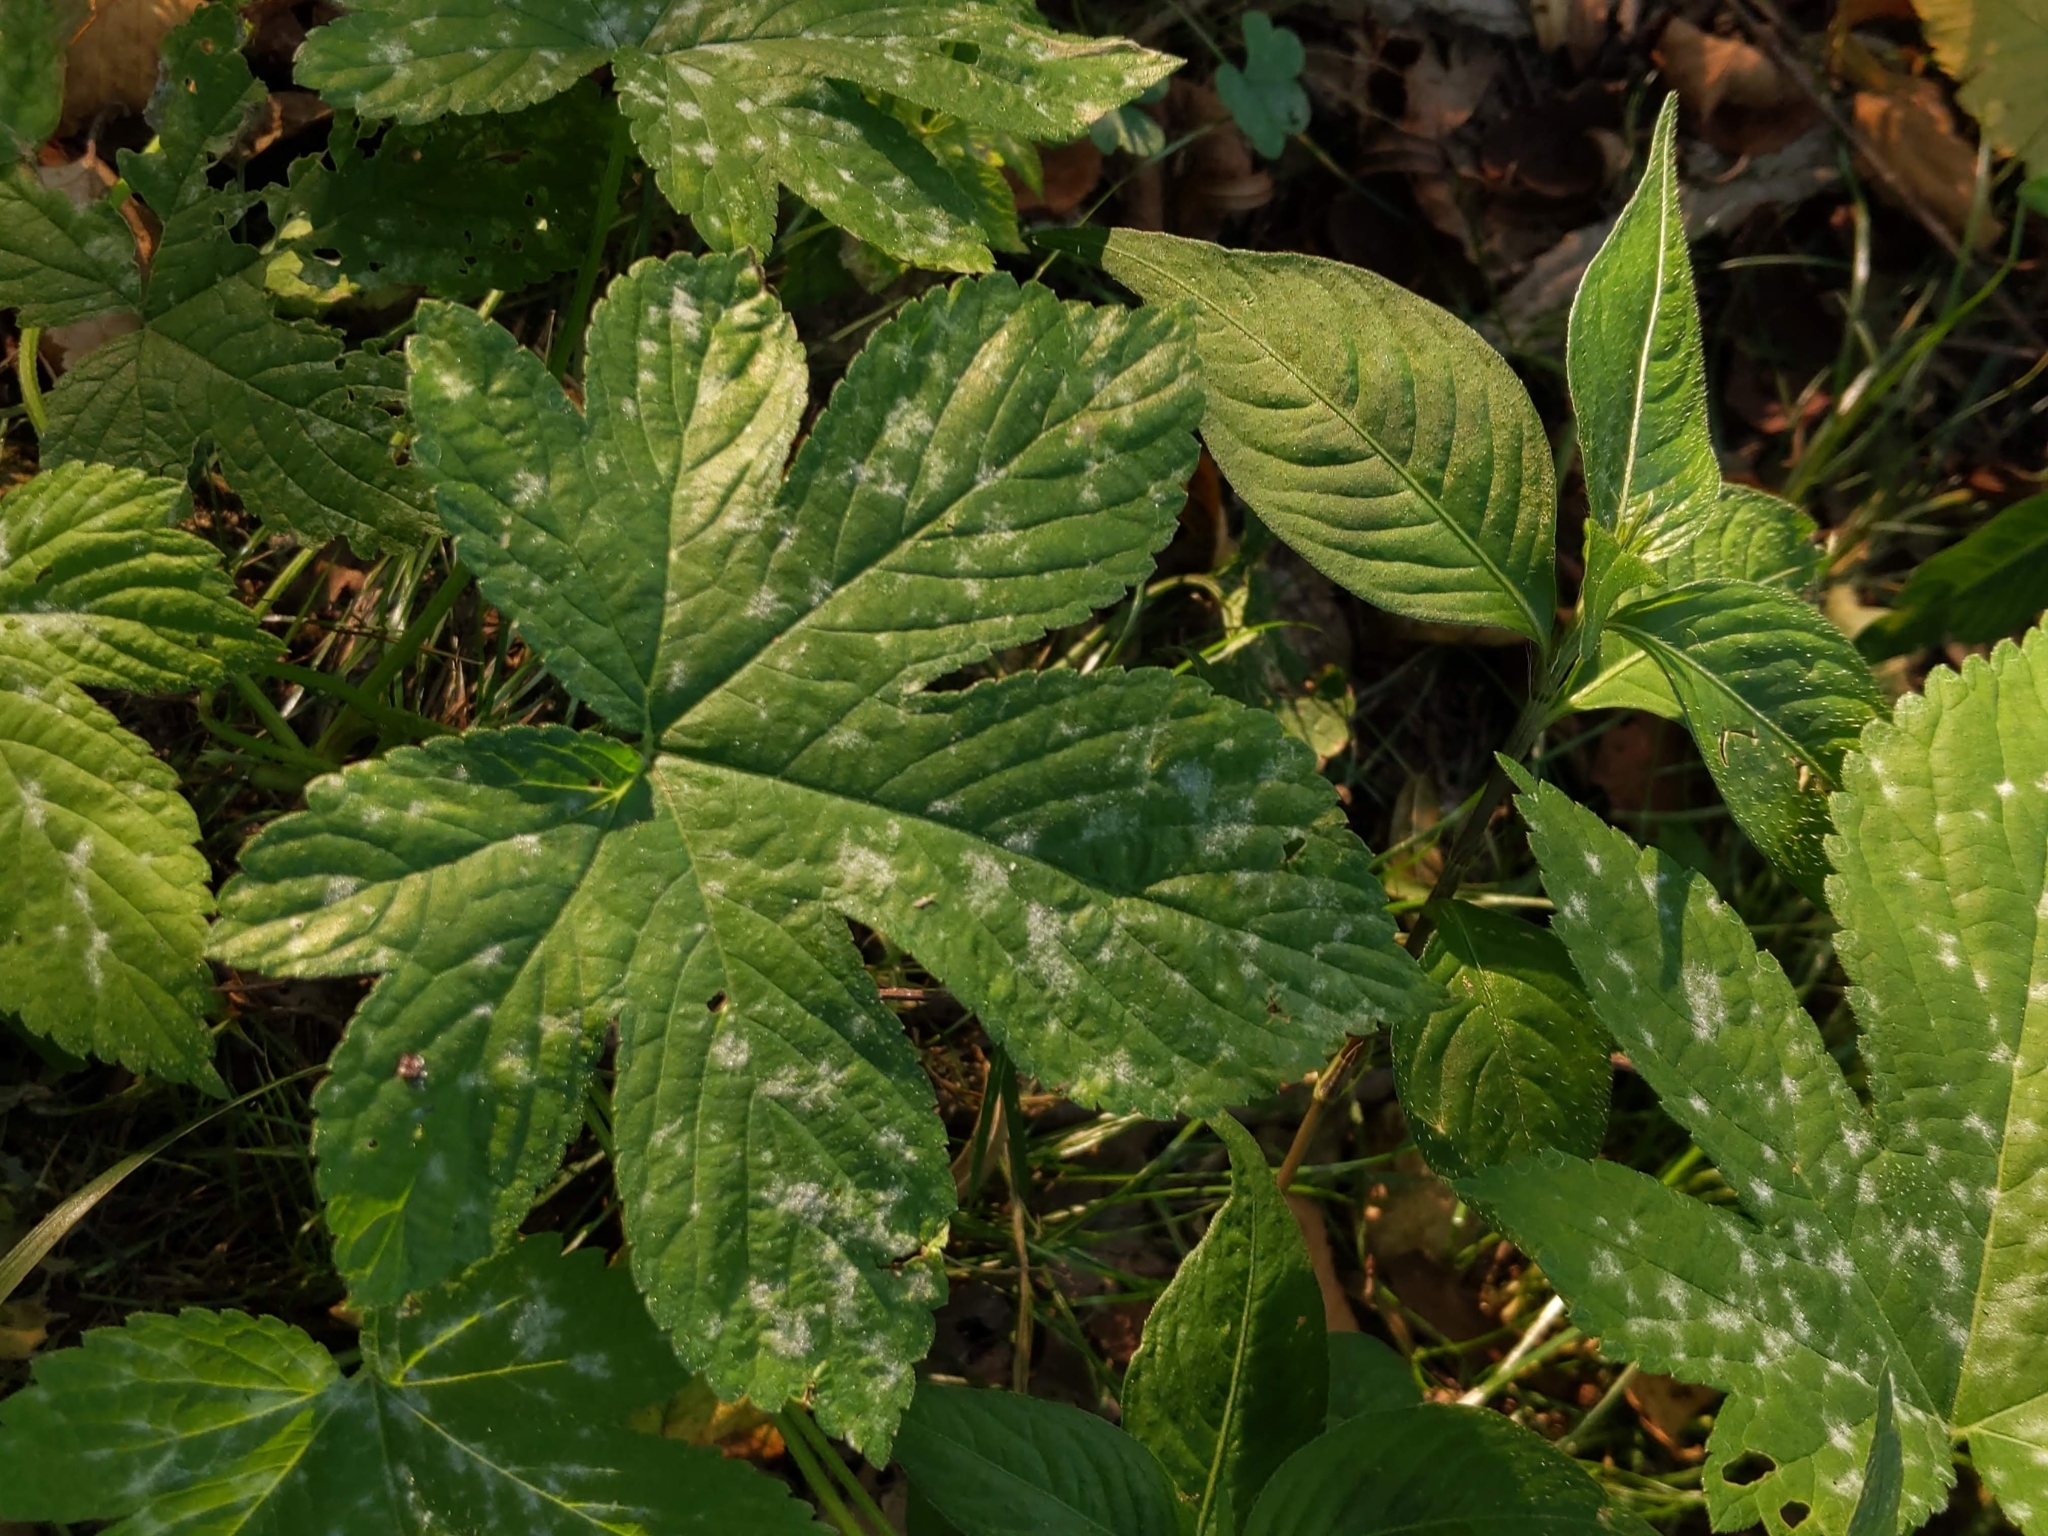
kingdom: Fungi
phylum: Ascomycota
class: Leotiomycetes
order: Helotiales
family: Erysiphaceae
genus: Podosphaera
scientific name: Podosphaera macularis
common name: Powdery mildew
